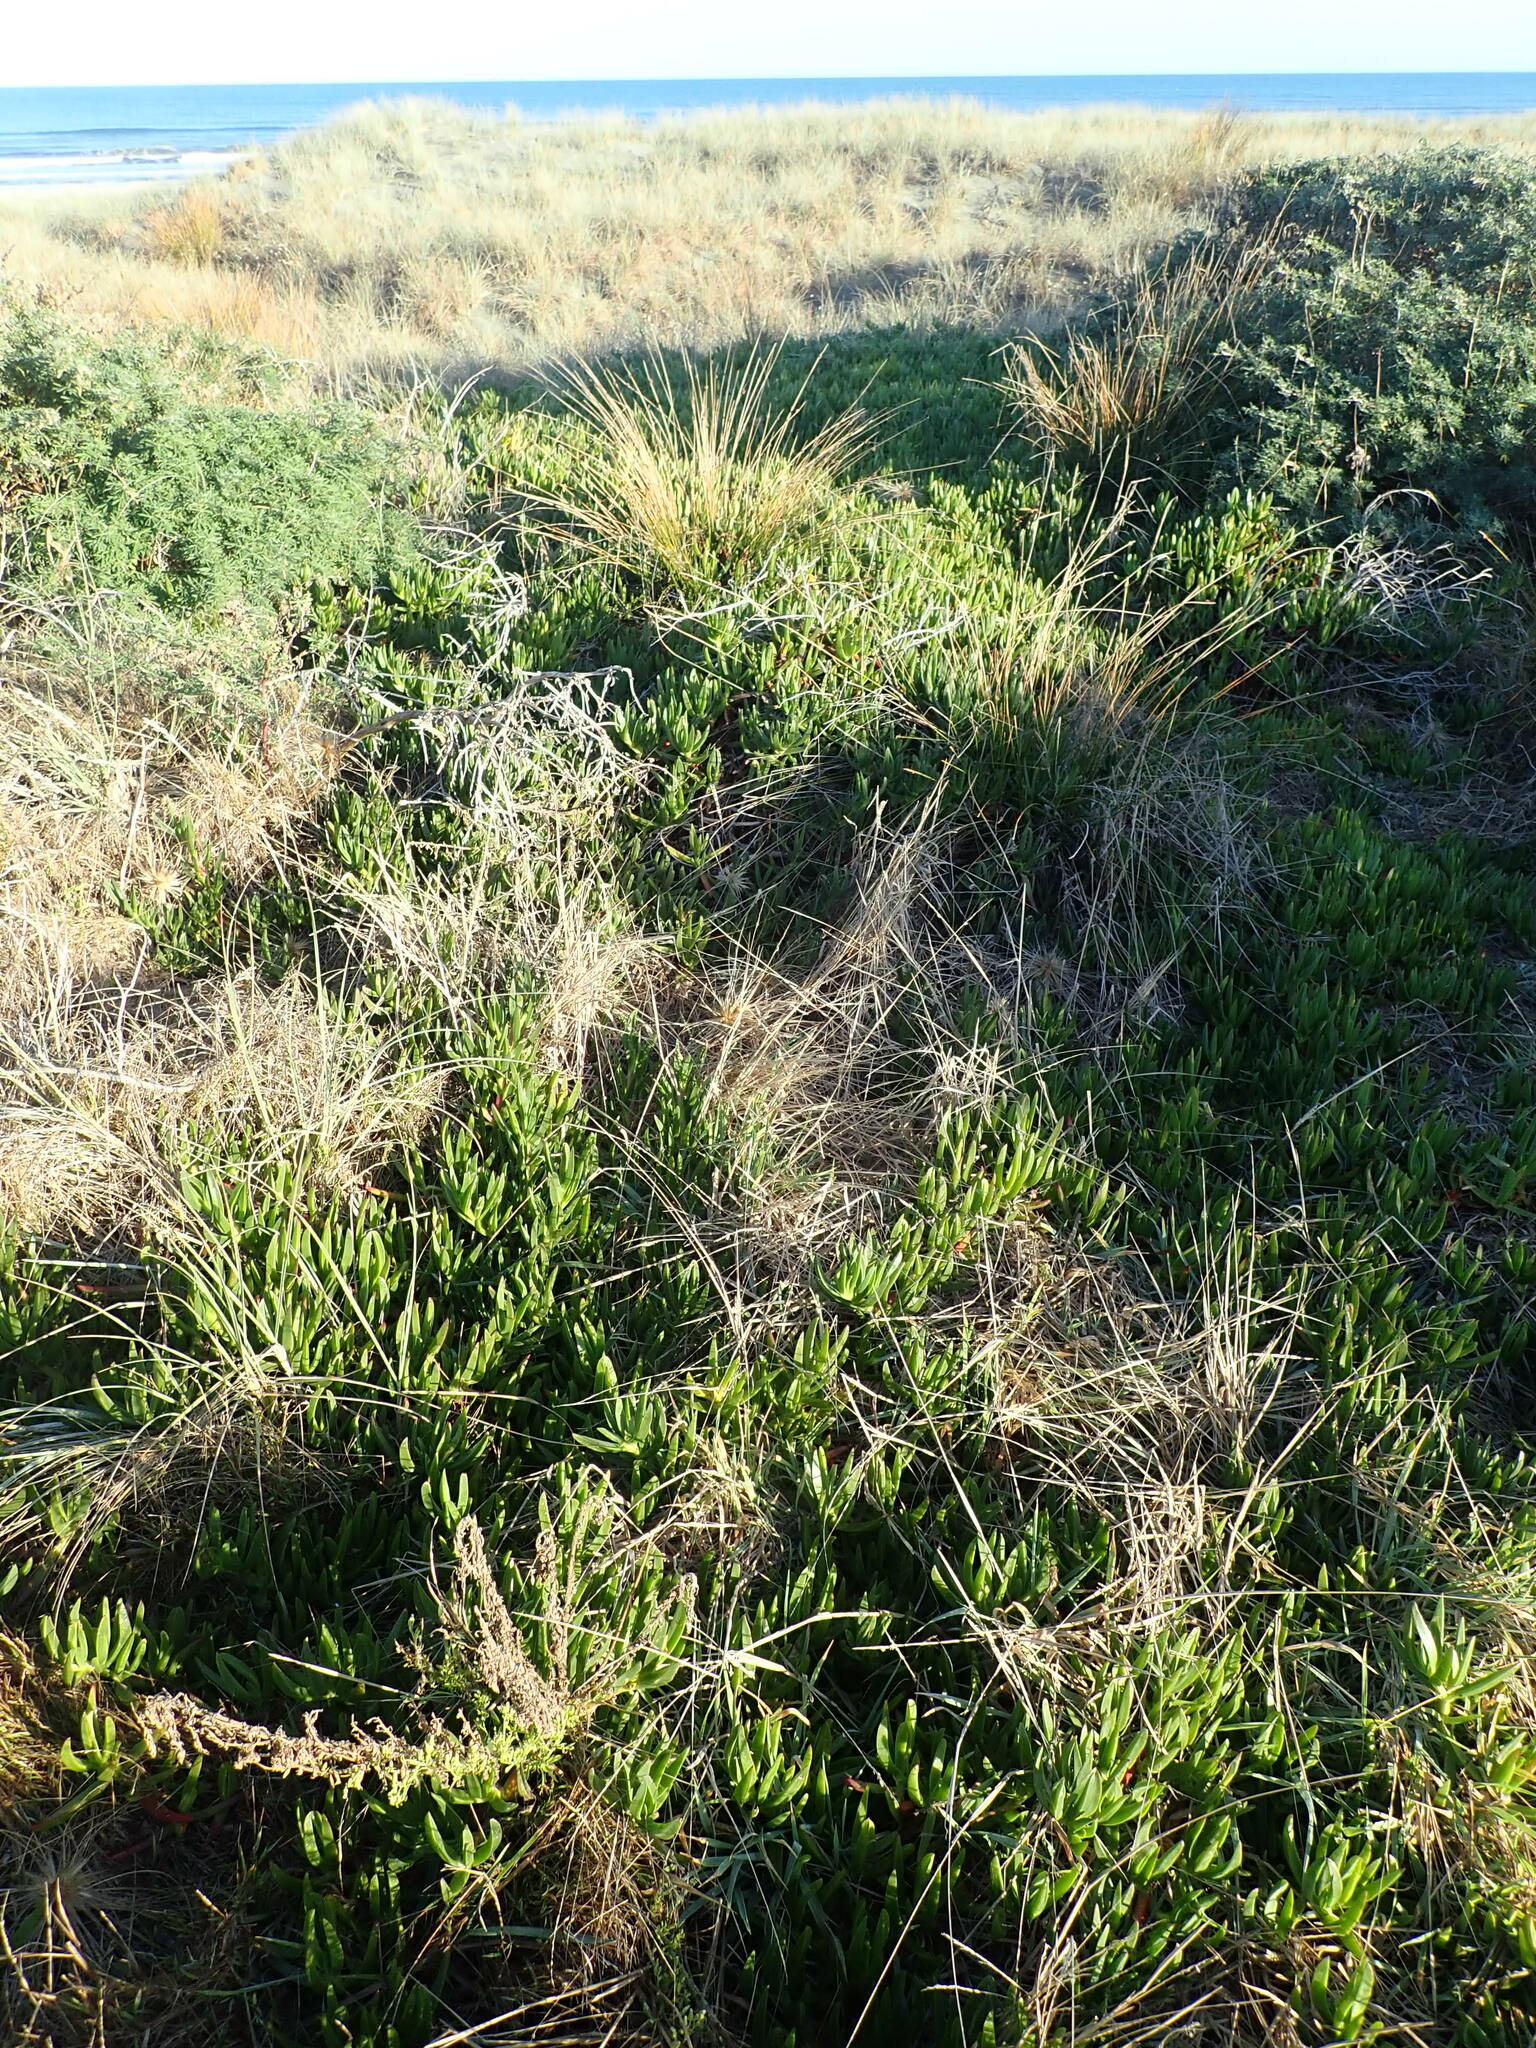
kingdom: Plantae
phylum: Tracheophyta
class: Magnoliopsida
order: Caryophyllales
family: Aizoaceae
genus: Carpobrotus
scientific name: Carpobrotus edulis
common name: Hottentot-fig
